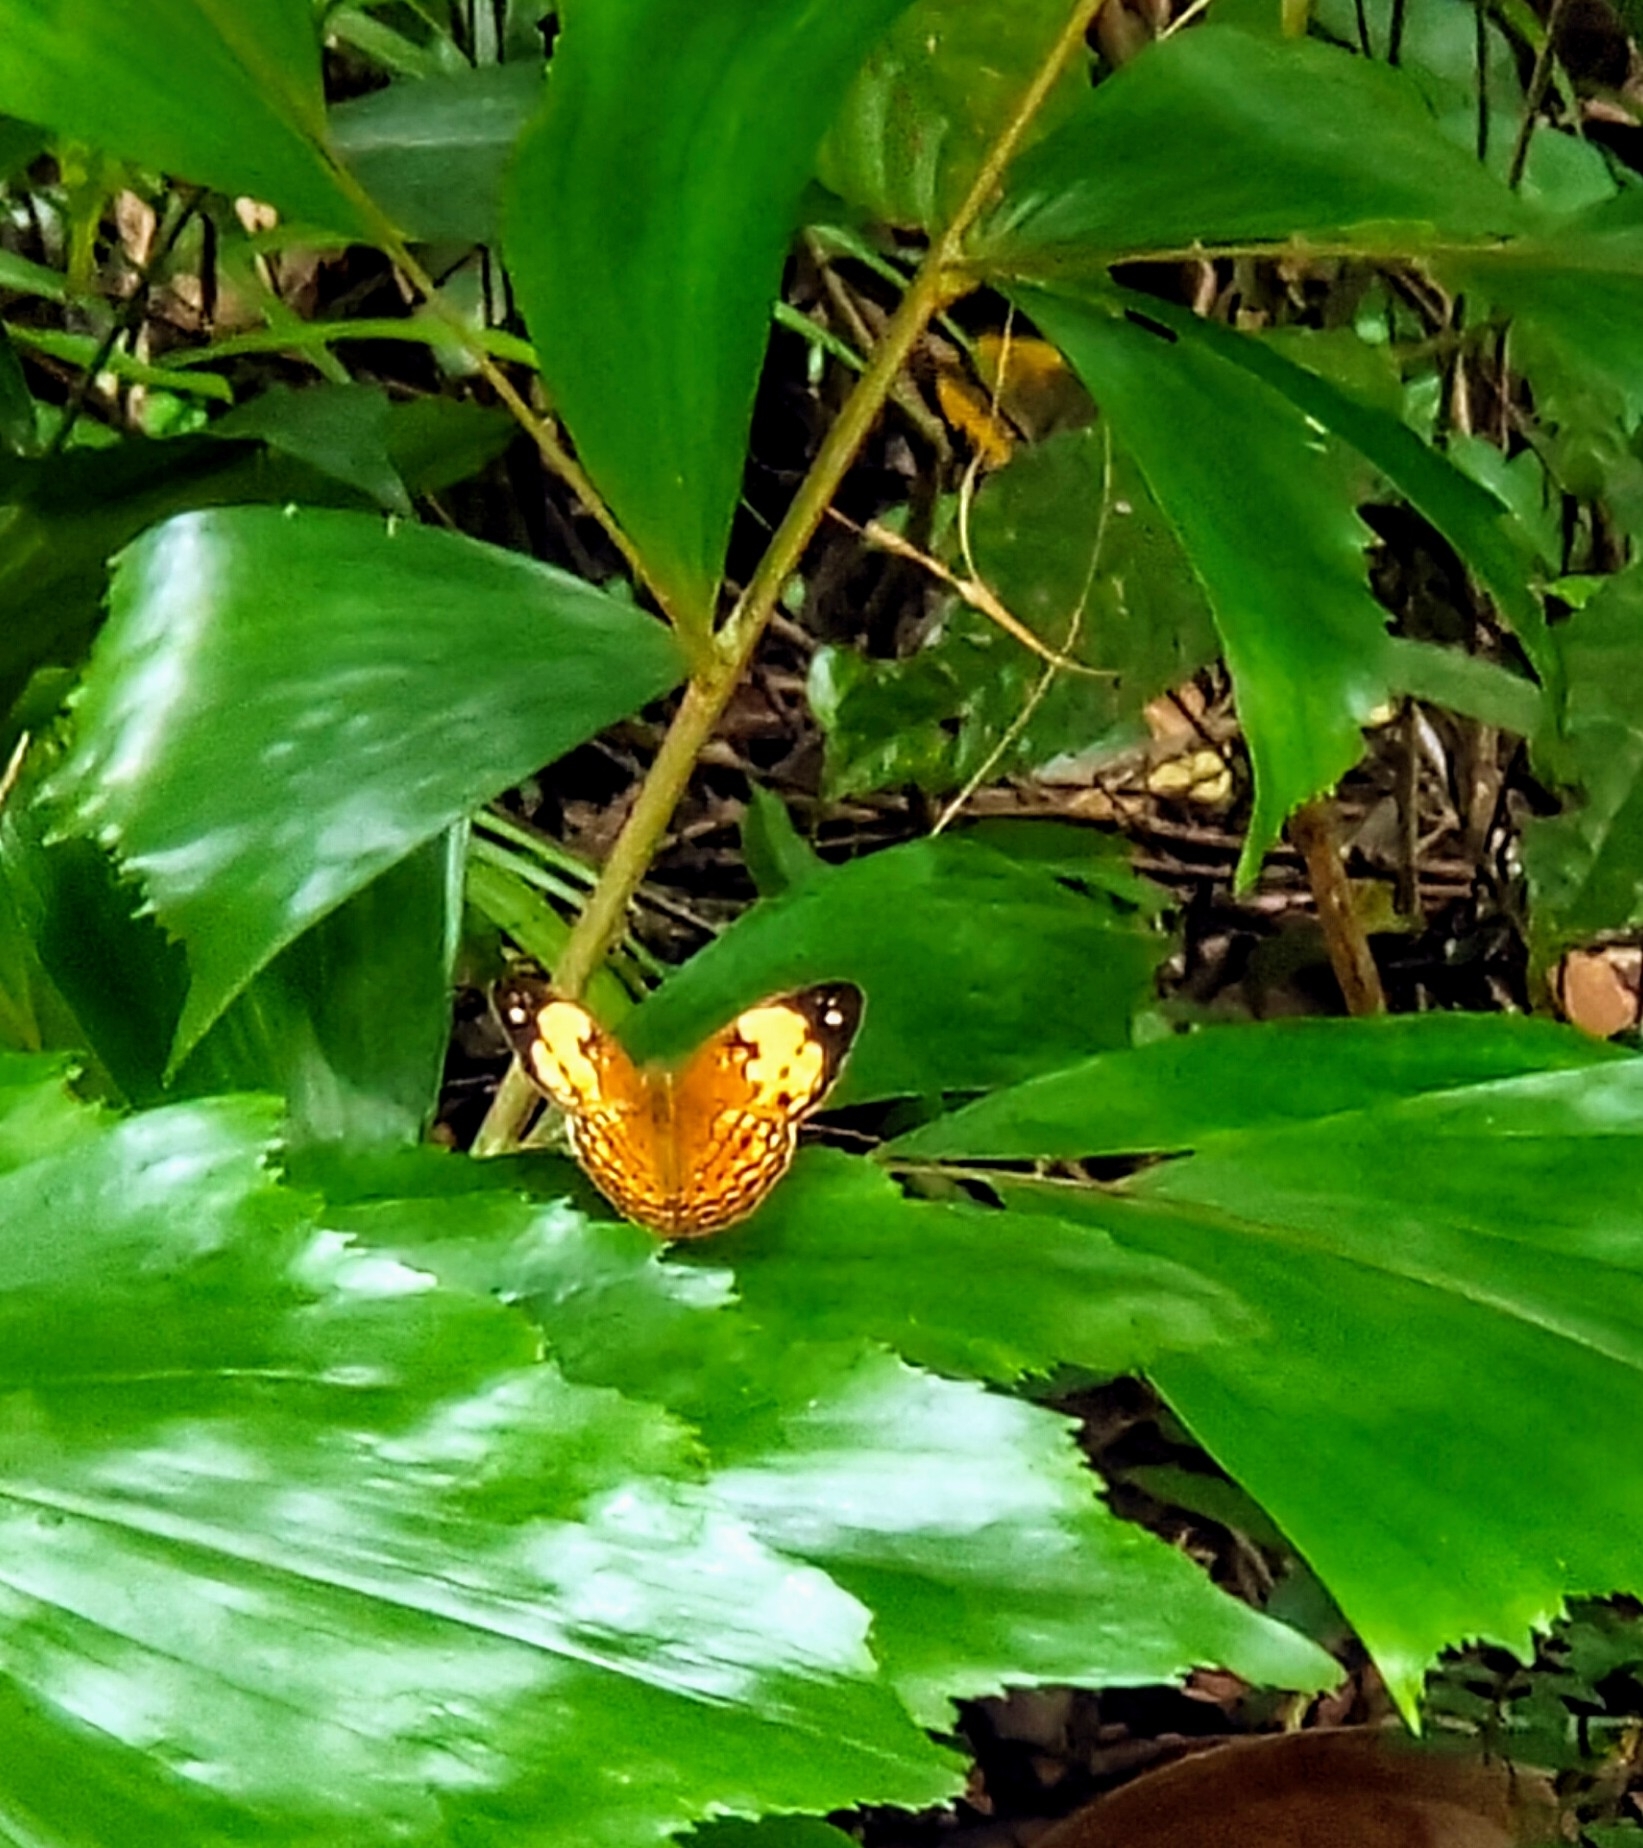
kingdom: Animalia
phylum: Arthropoda
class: Insecta
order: Lepidoptera
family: Nymphalidae
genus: Cupha
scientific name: Cupha erymanthis
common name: Rustic
